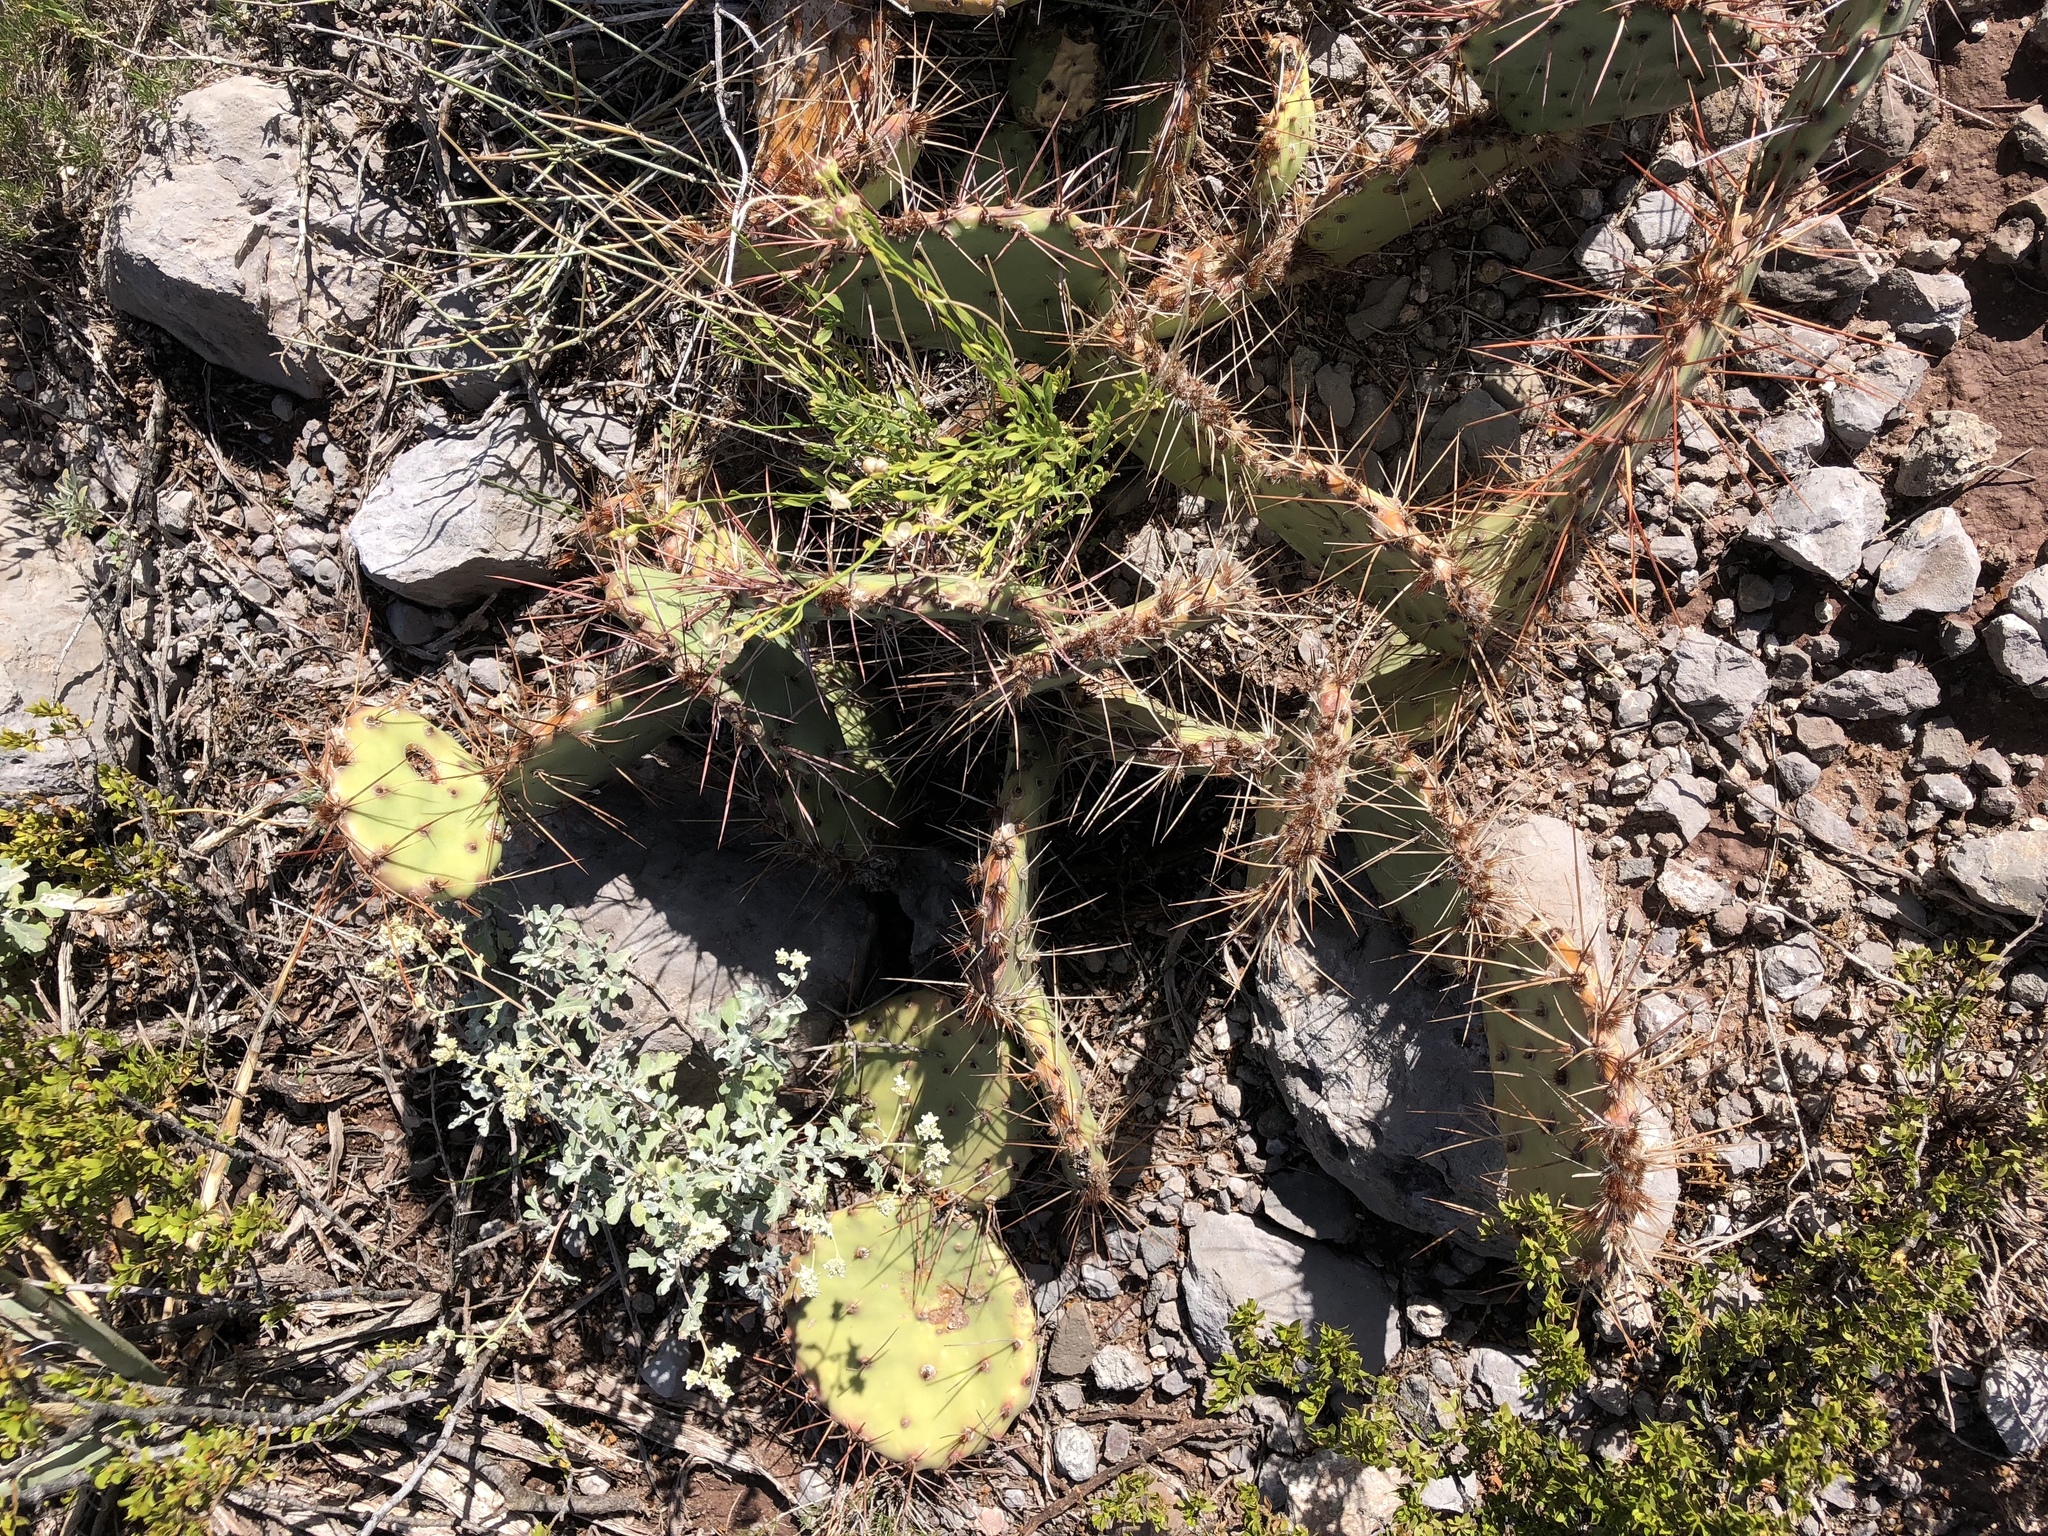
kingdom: Plantae
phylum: Tracheophyta
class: Magnoliopsida
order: Caryophyllales
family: Cactaceae
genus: Opuntia
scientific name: Opuntia phaeacantha
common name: New mexico prickly-pear
